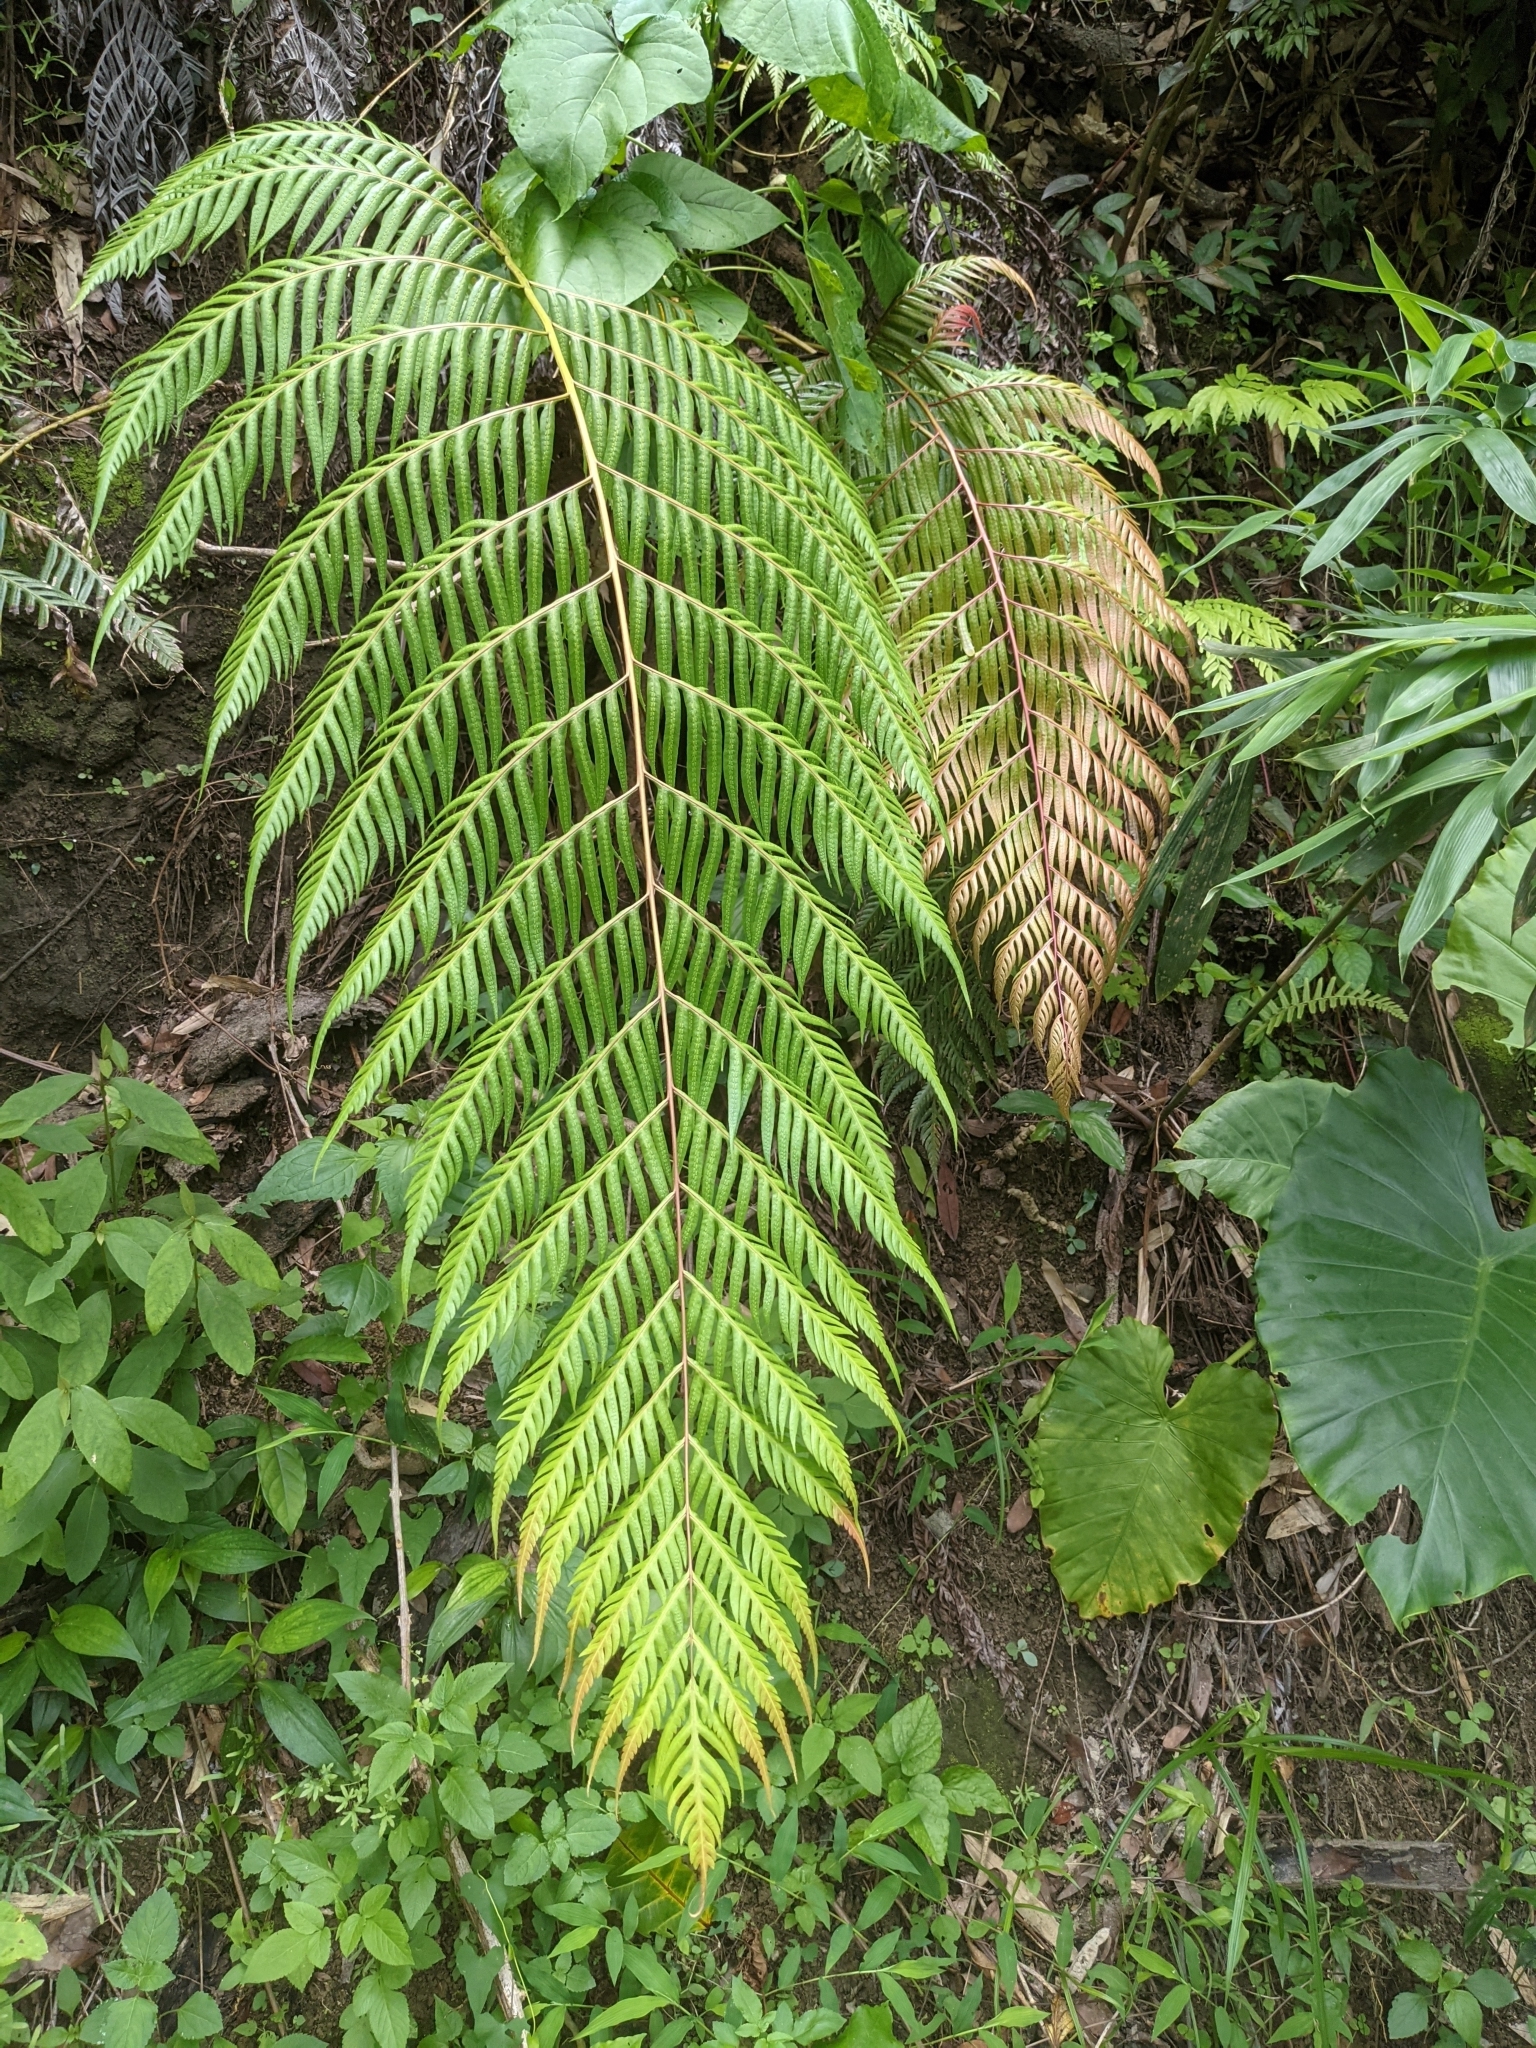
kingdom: Plantae
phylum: Tracheophyta
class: Polypodiopsida
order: Polypodiales
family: Blechnaceae
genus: Woodwardia
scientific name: Woodwardia prolifera
